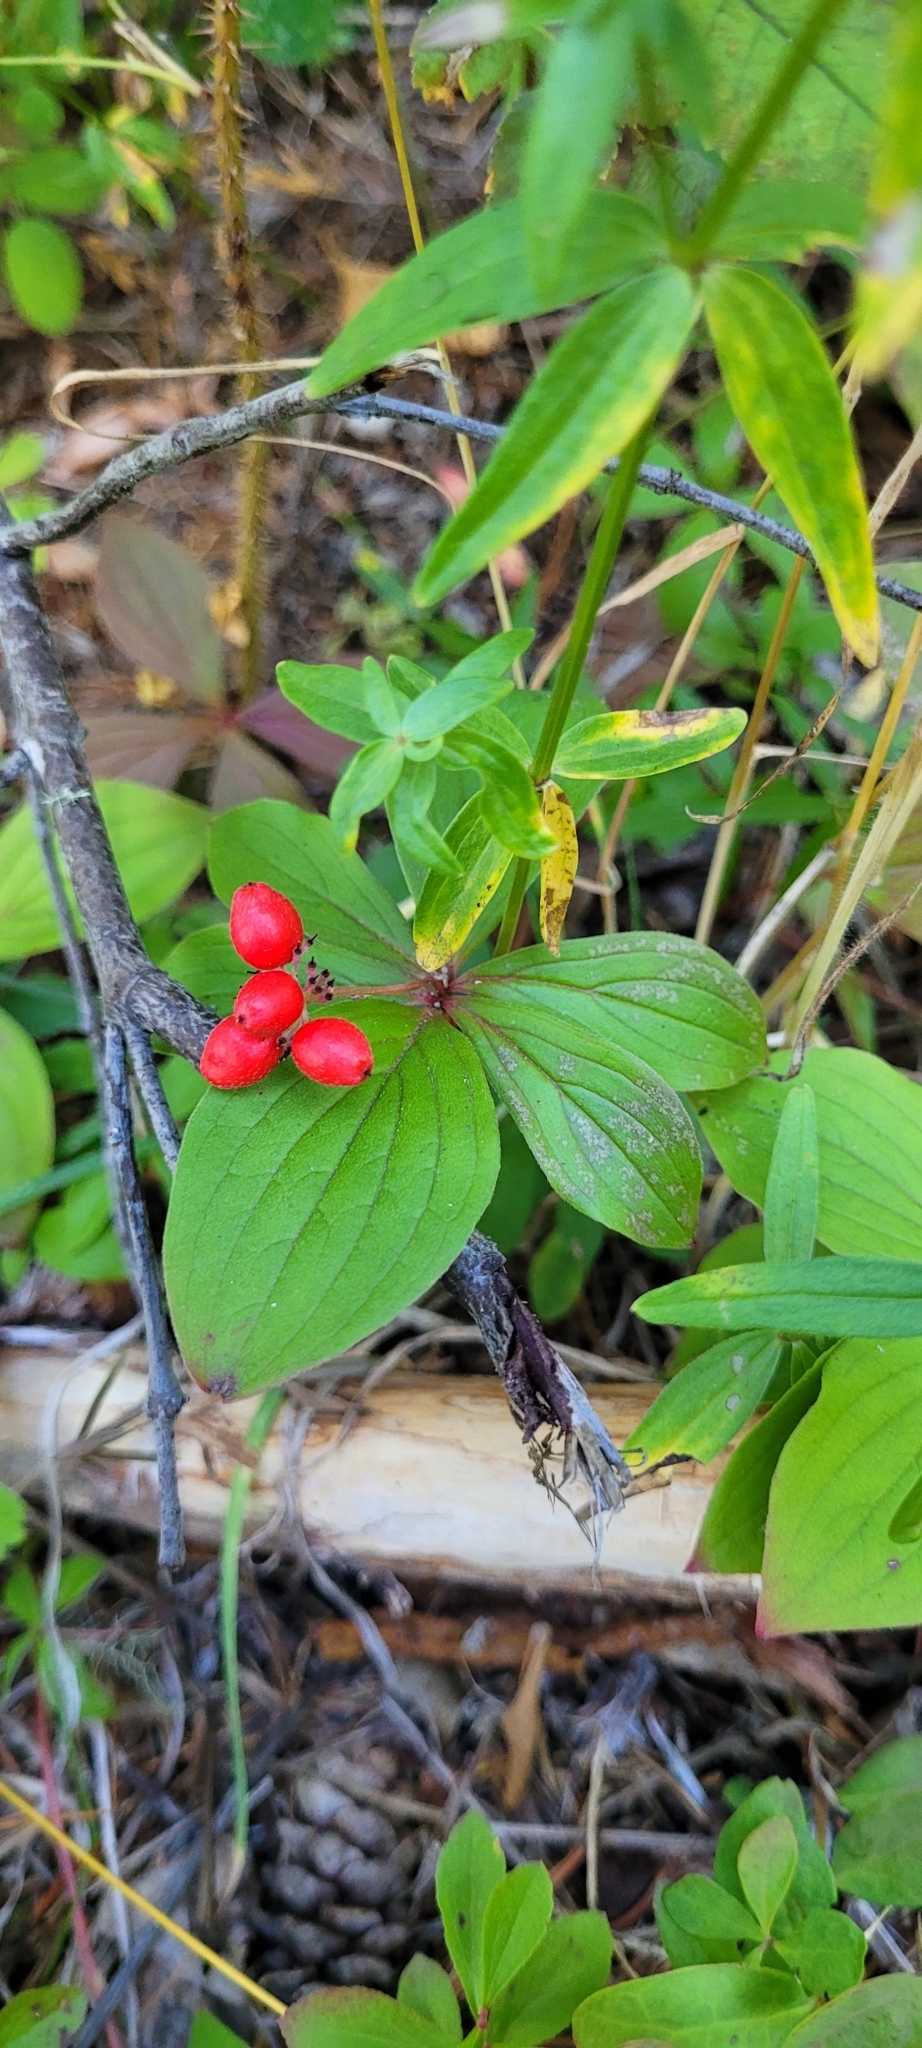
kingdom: Plantae
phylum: Tracheophyta
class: Magnoliopsida
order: Cornales
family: Cornaceae
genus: Cornus
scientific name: Cornus unalaschkensis
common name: Alaska bunchberry
